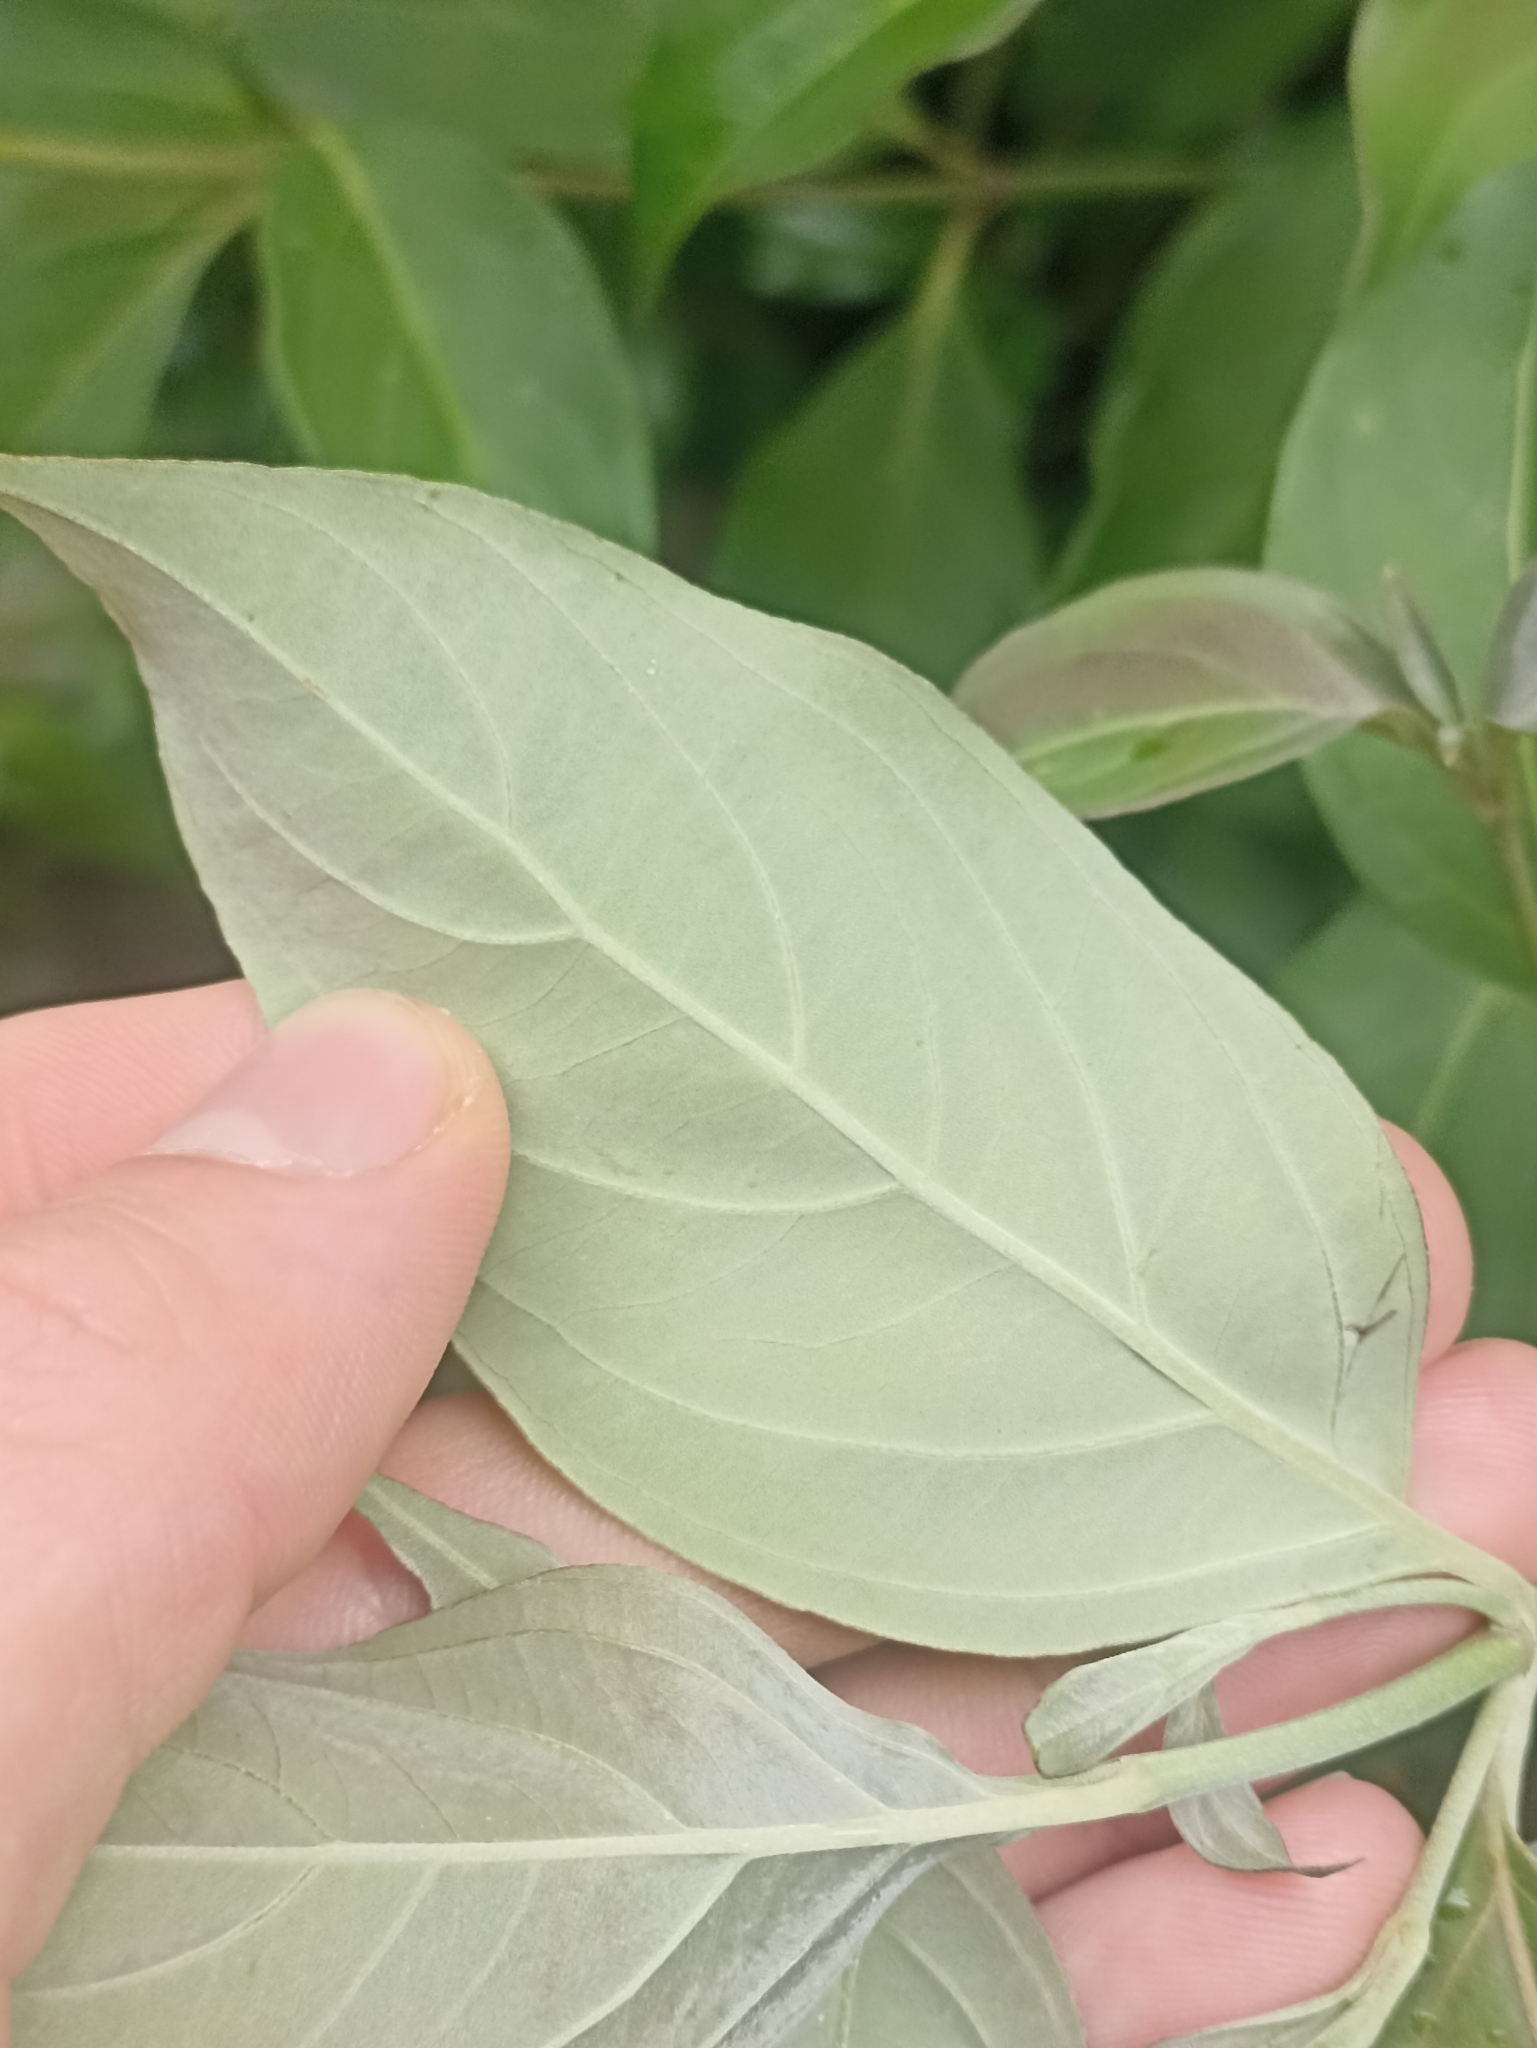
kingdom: Plantae
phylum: Tracheophyta
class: Magnoliopsida
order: Cornales
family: Cornaceae
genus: Cornus
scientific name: Cornus capitata
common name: Bentham's cornel
